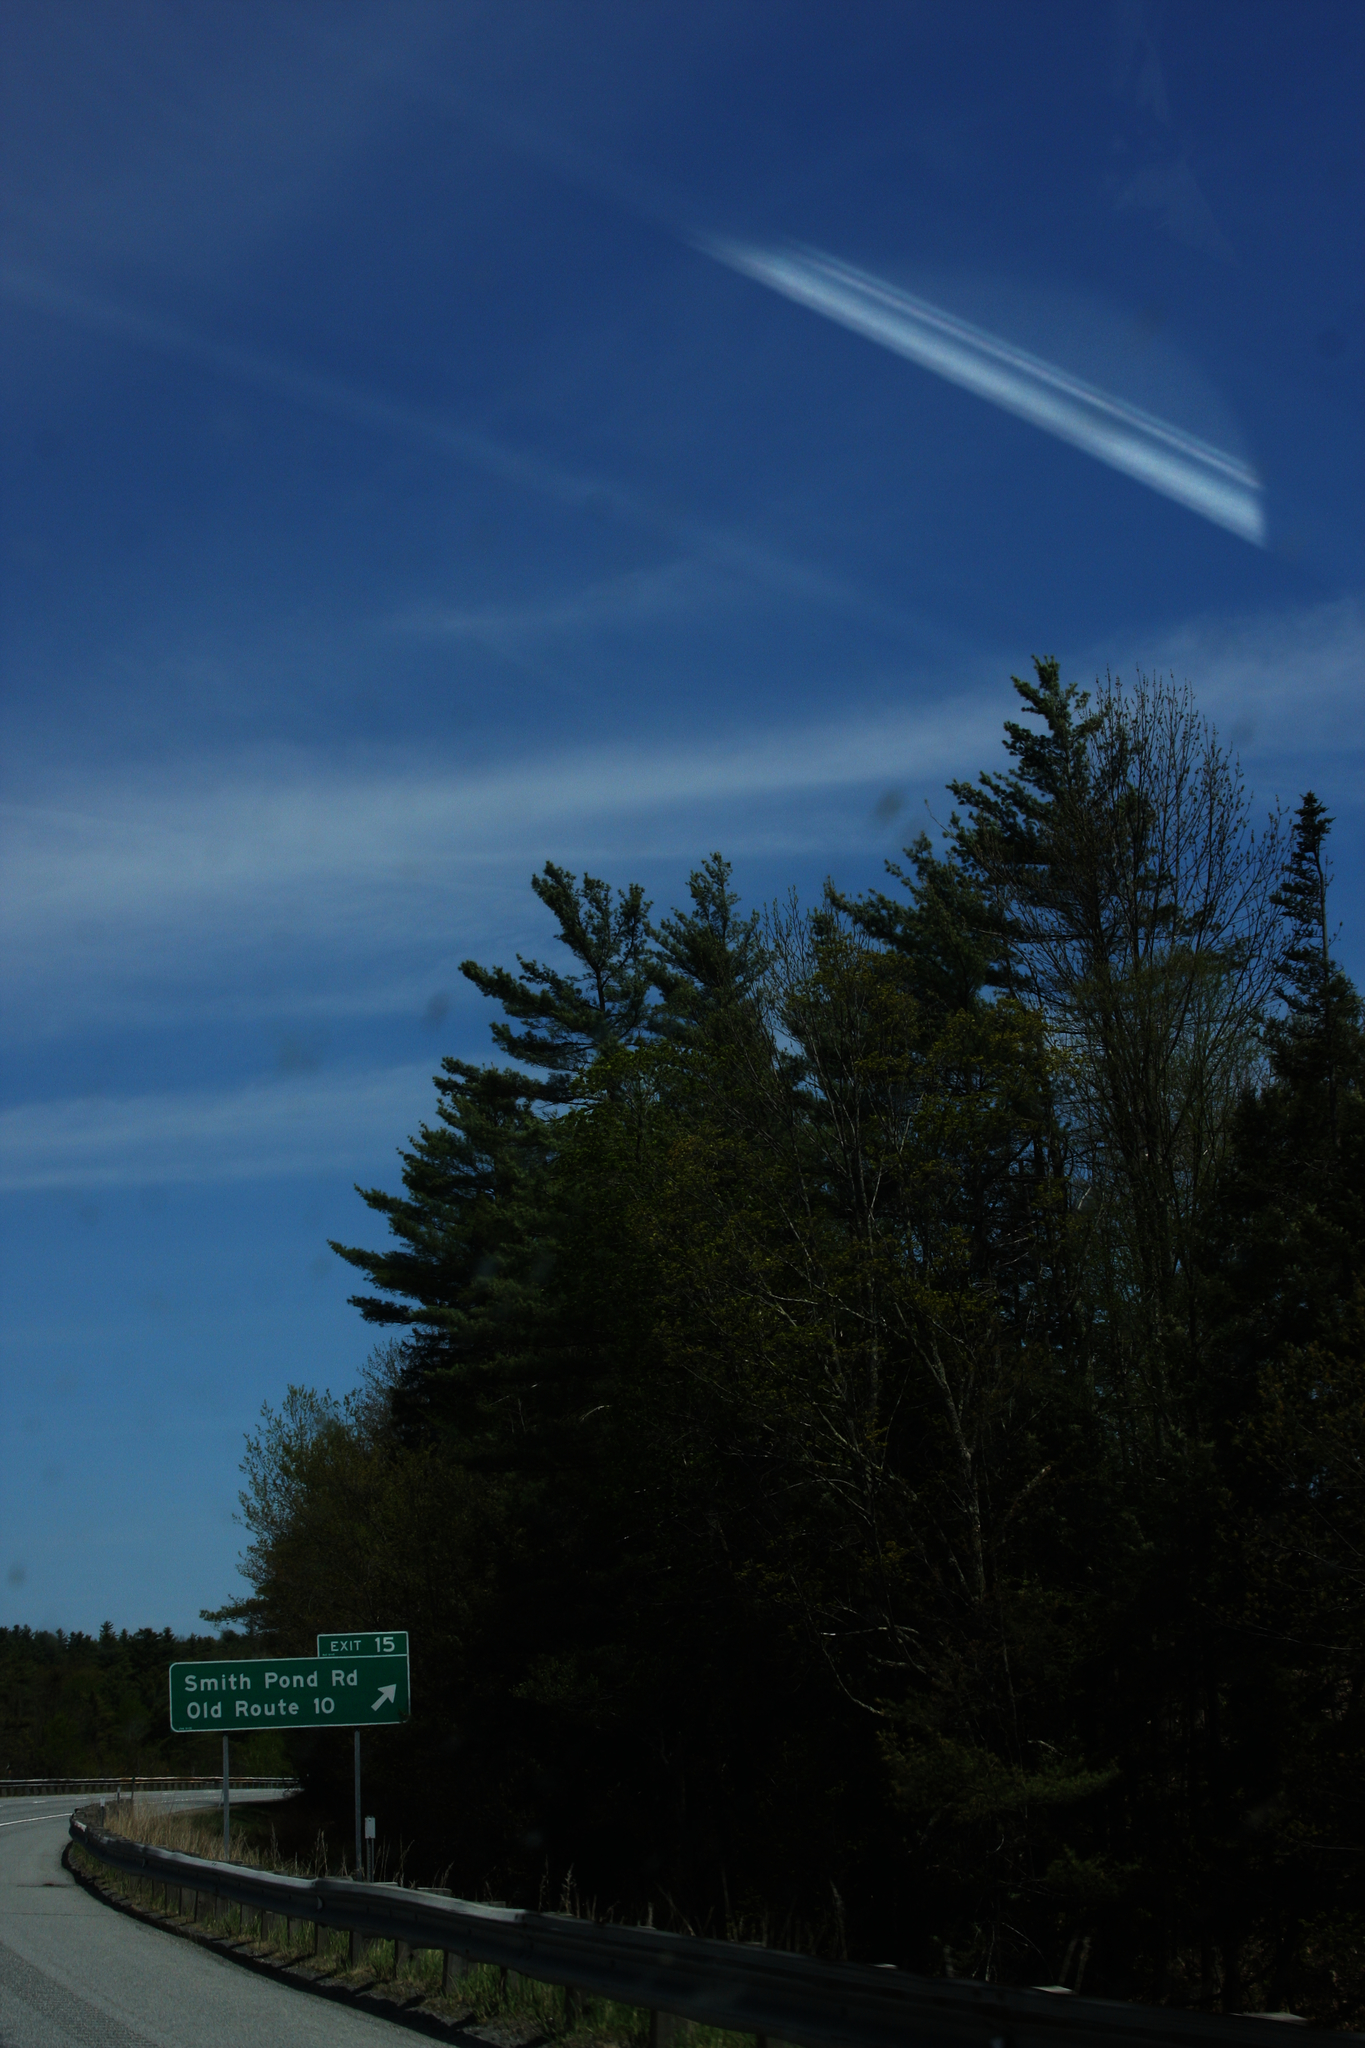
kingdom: Plantae
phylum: Tracheophyta
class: Pinopsida
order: Pinales
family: Pinaceae
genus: Pinus
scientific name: Pinus strobus
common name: Weymouth pine
